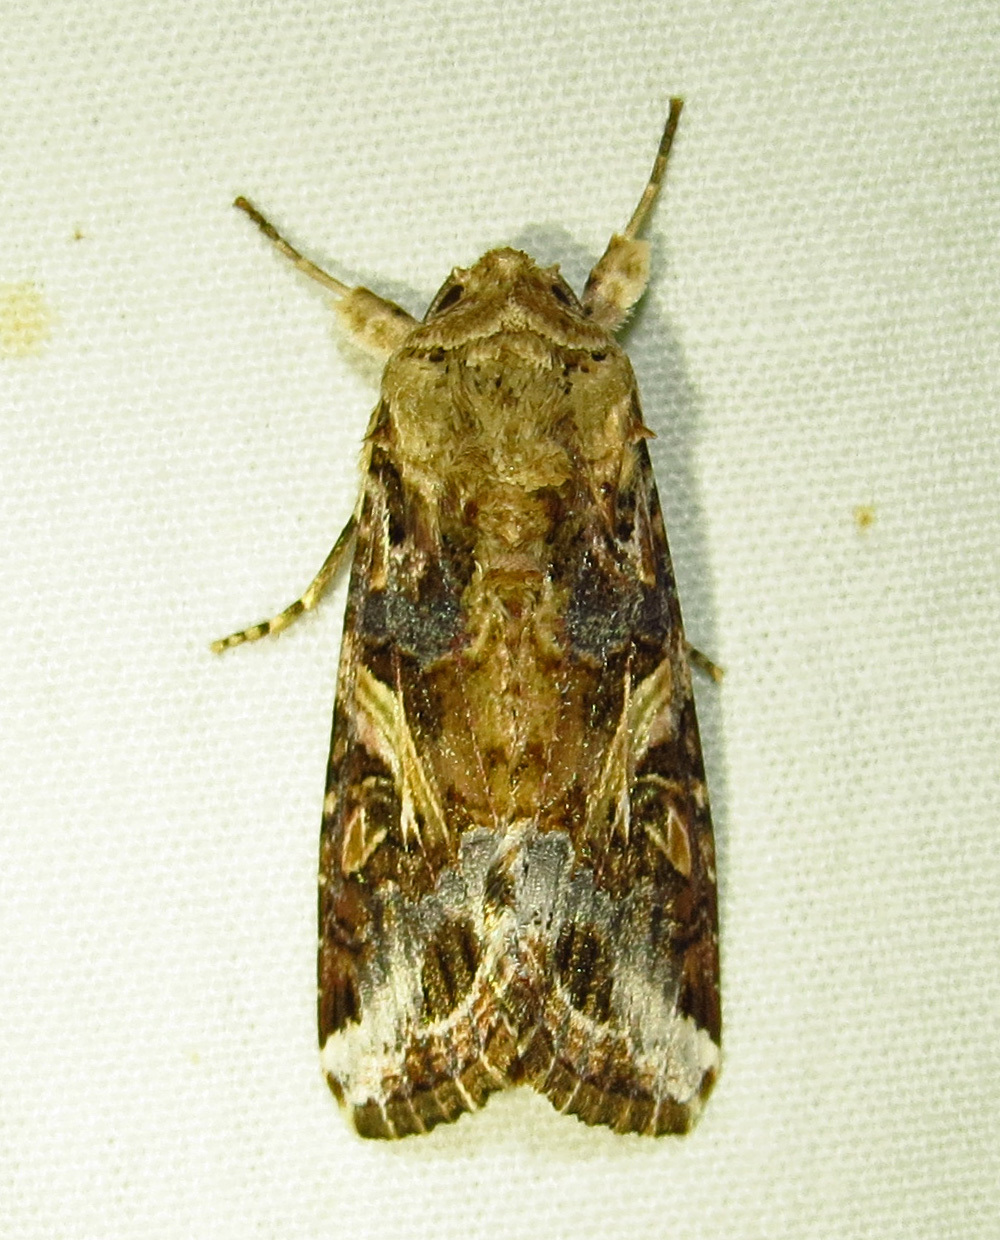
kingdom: Animalia
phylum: Arthropoda
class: Insecta
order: Lepidoptera
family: Noctuidae
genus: Spodoptera
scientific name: Spodoptera ornithogalli
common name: Yellow-striped armyworm
